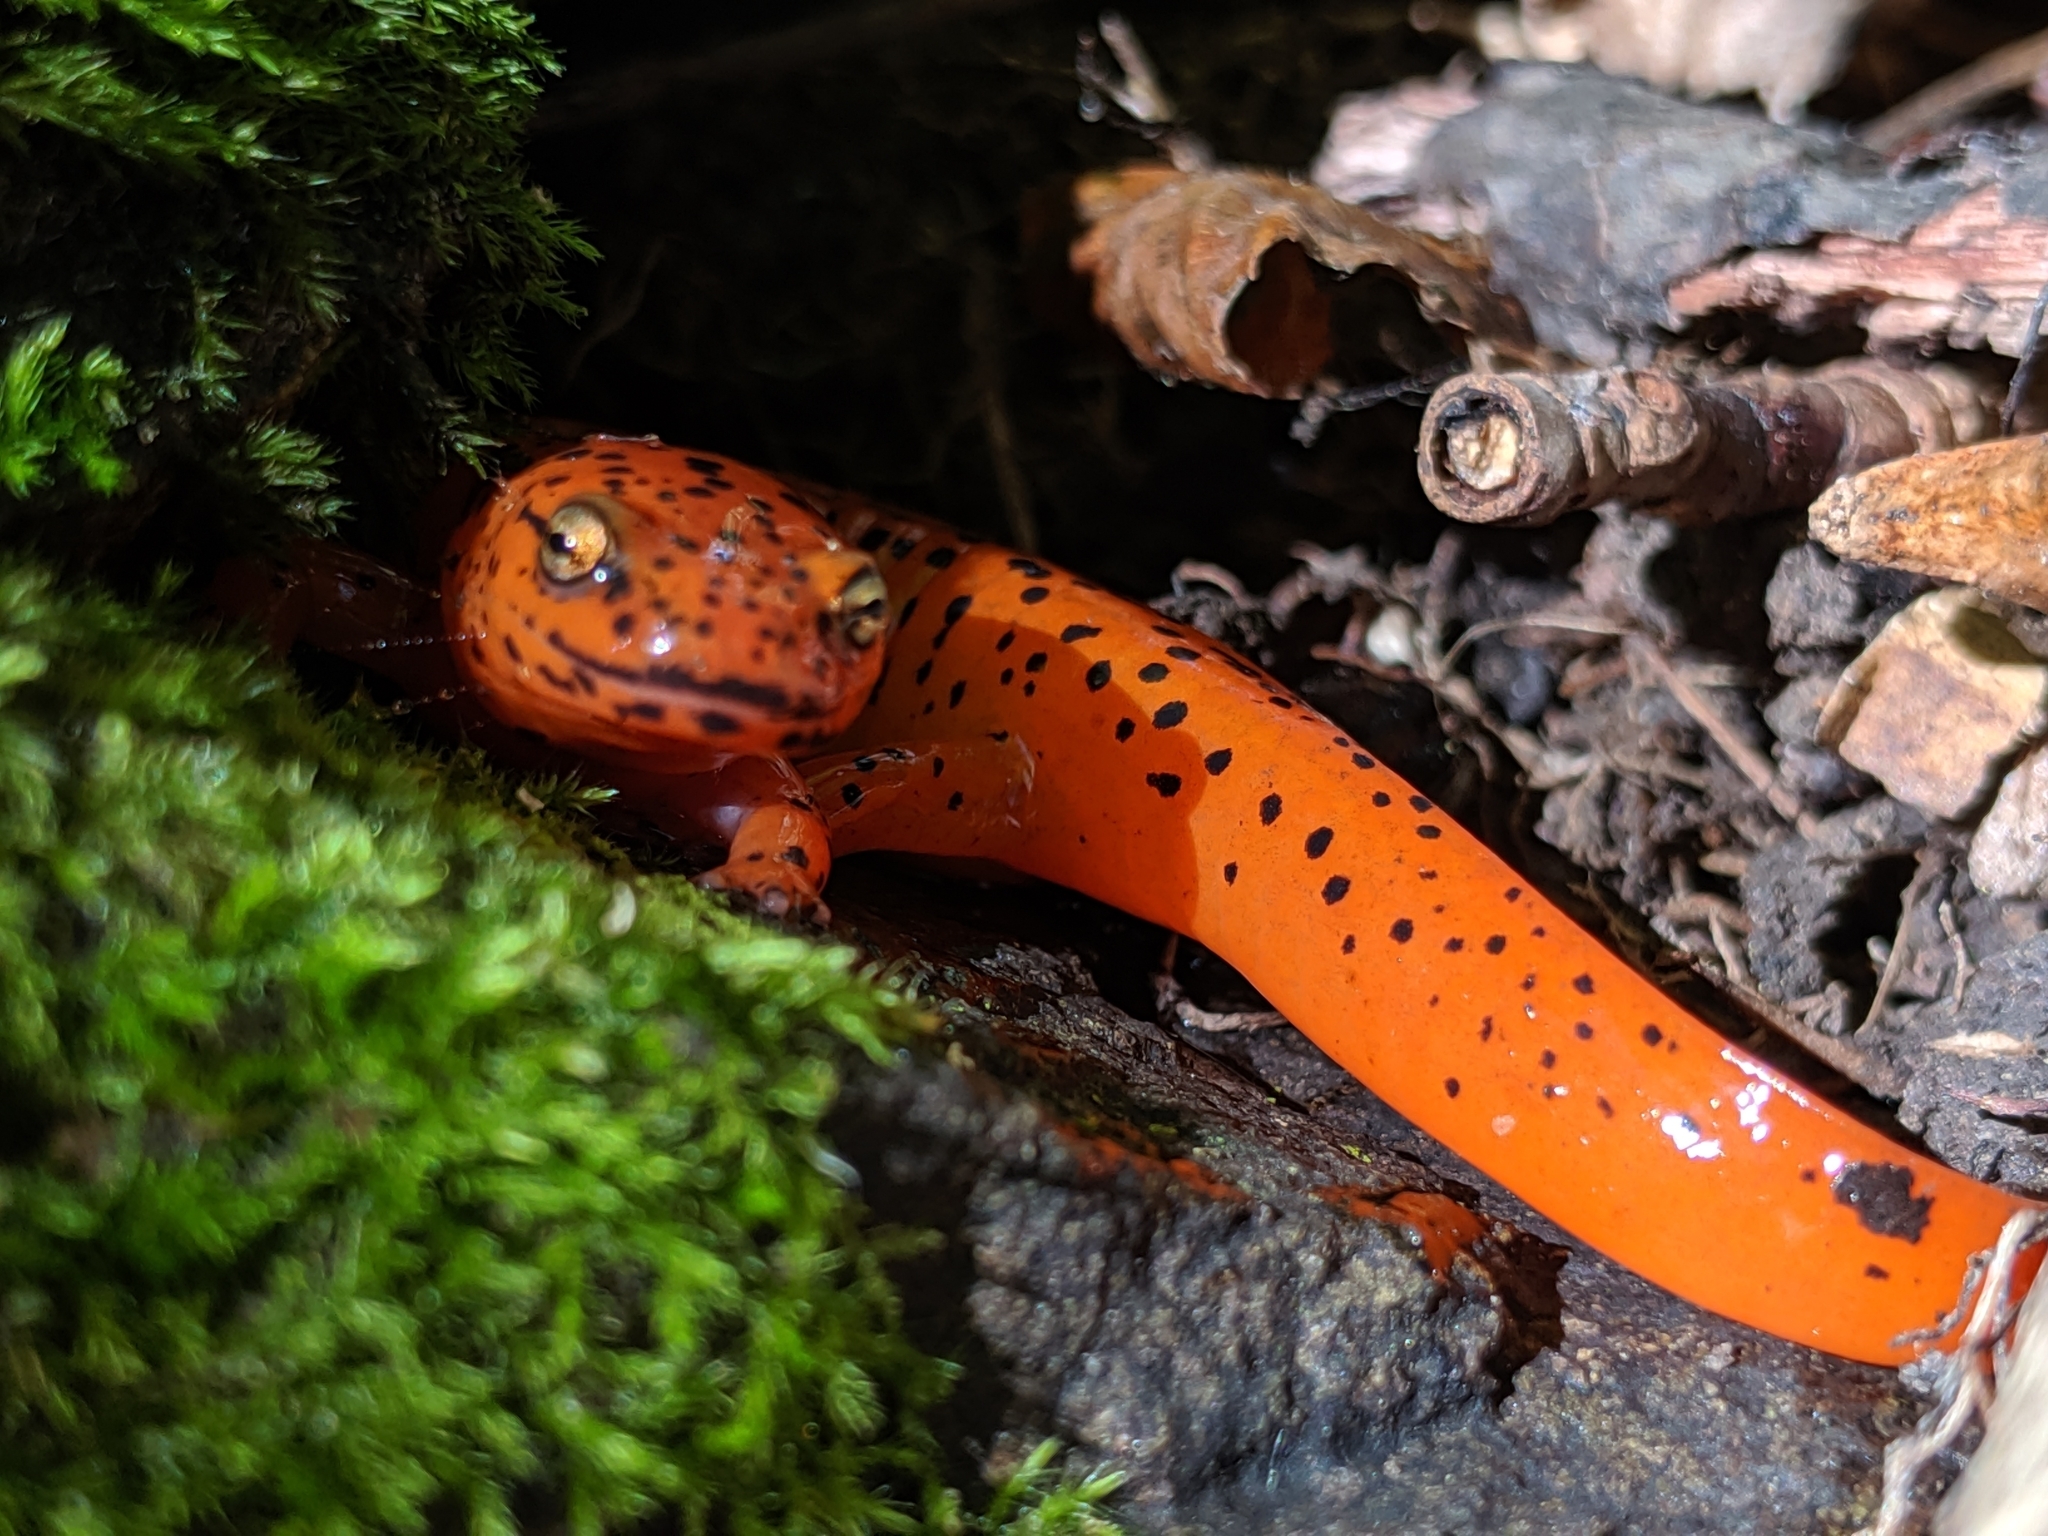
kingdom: Animalia
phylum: Chordata
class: Amphibia
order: Caudata
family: Plethodontidae
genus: Pseudotriton
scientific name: Pseudotriton ruber
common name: Red salamander
